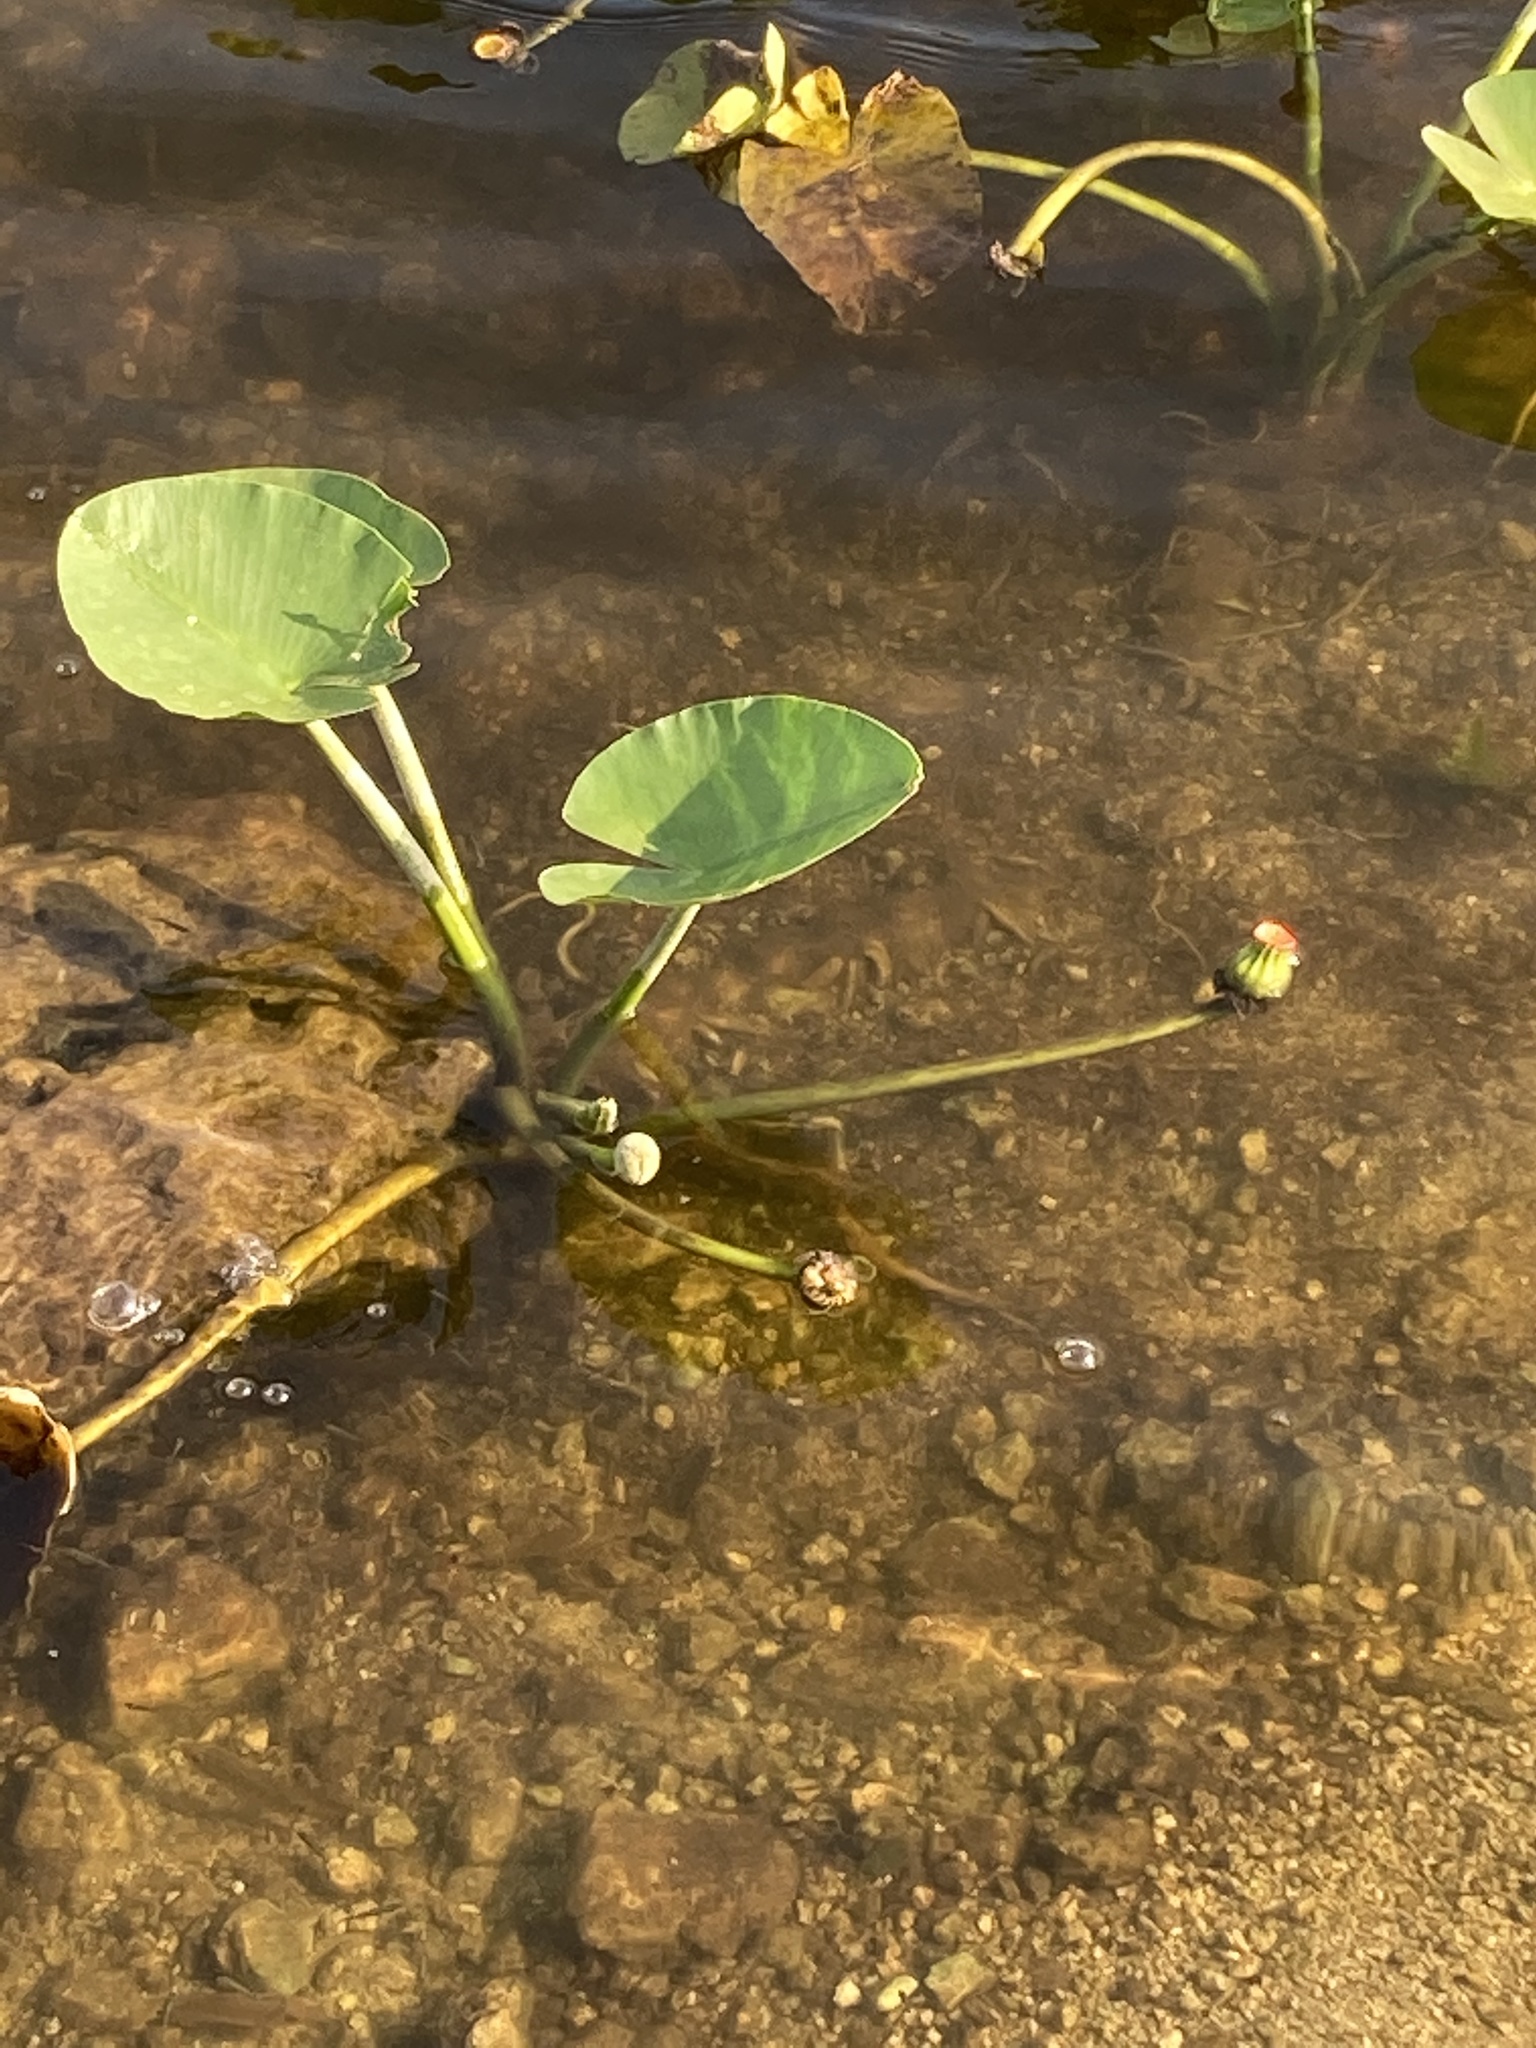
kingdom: Plantae
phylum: Tracheophyta
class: Magnoliopsida
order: Nymphaeales
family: Nymphaeaceae
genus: Nuphar
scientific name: Nuphar advena
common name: Spatter-dock
